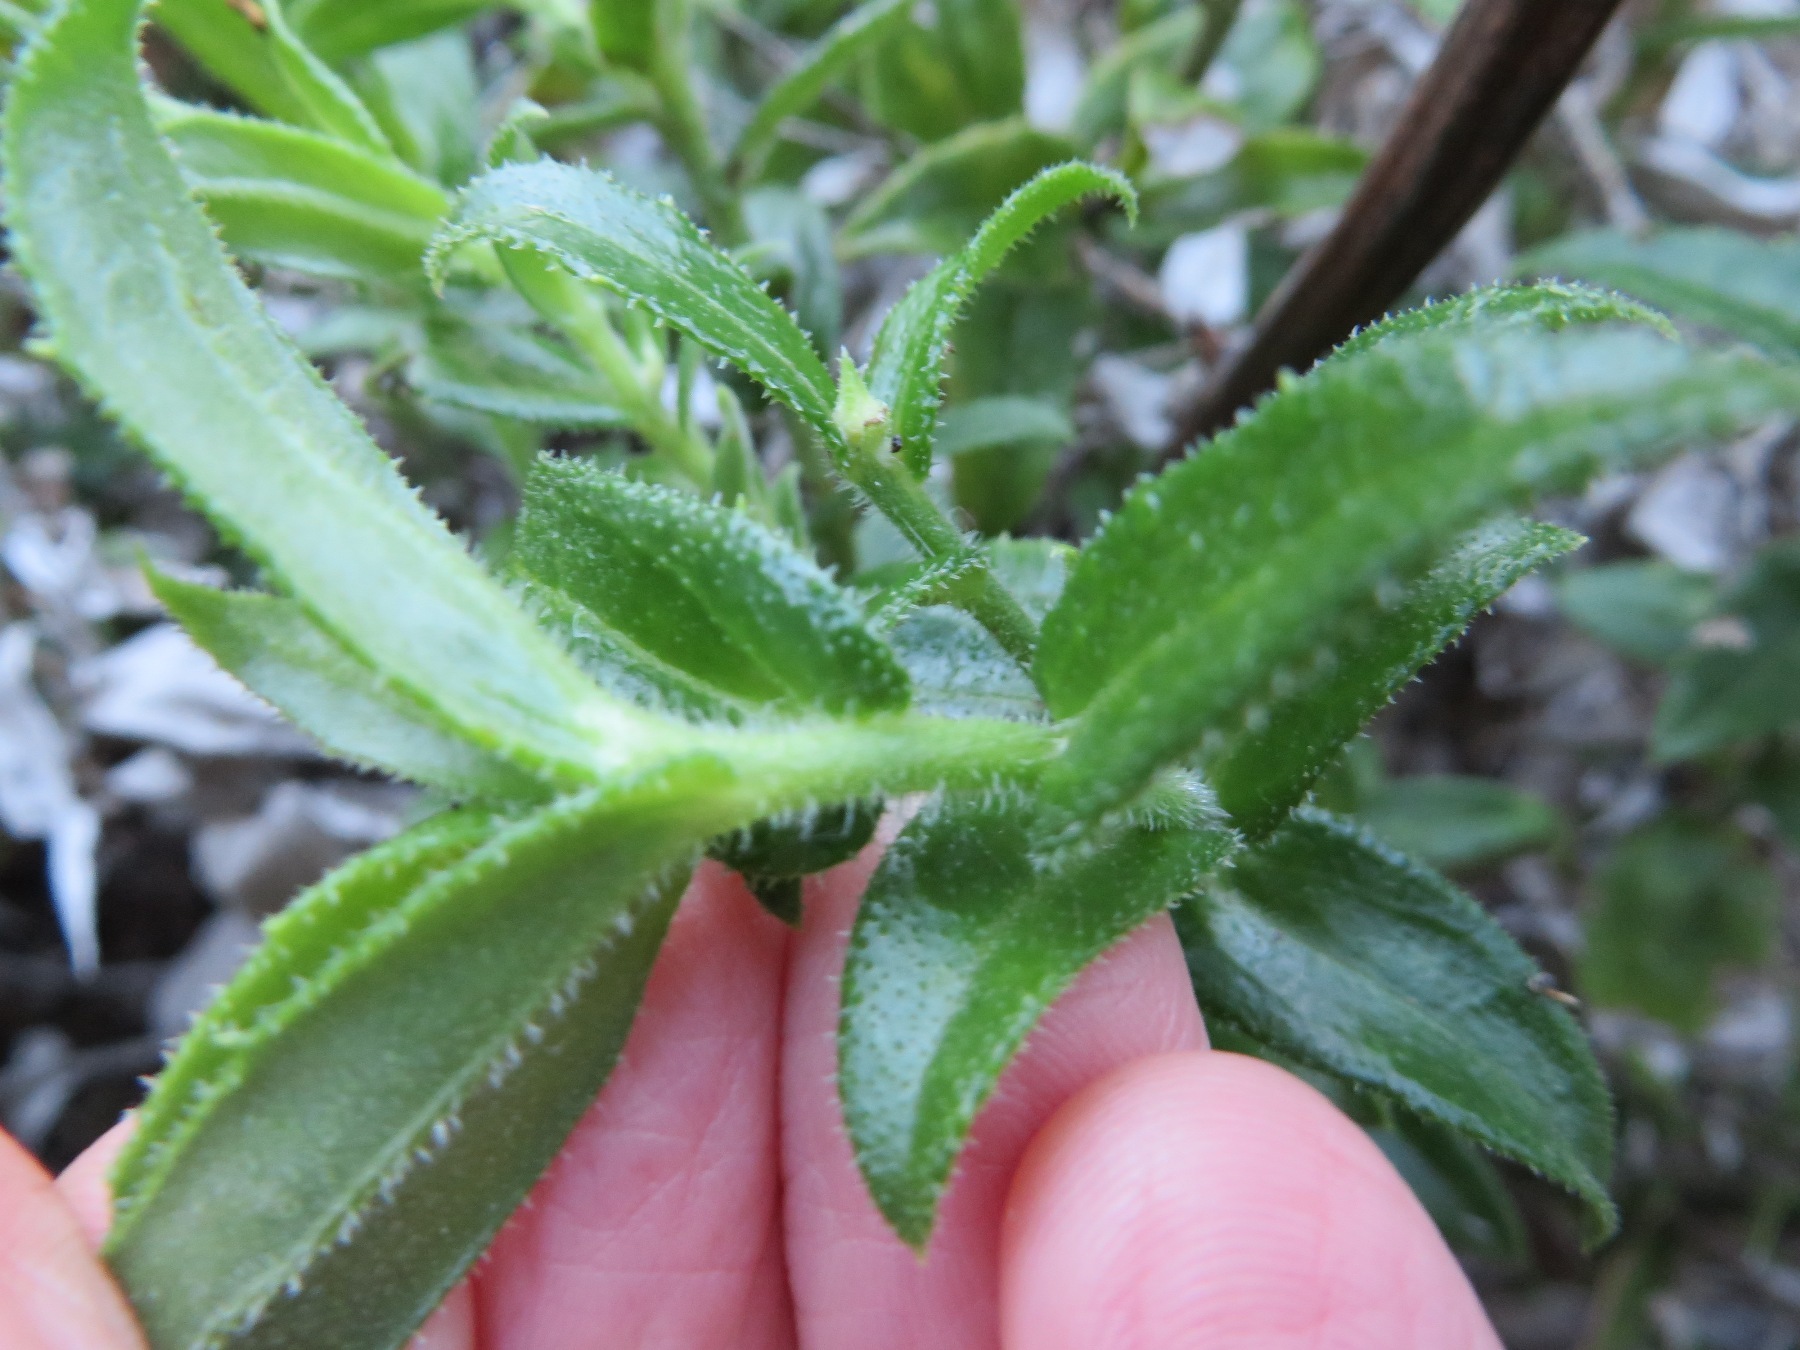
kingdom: Plantae
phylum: Tracheophyta
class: Magnoliopsida
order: Asterales
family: Asteraceae
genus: Osteospermum
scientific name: Osteospermum ilicifolium
